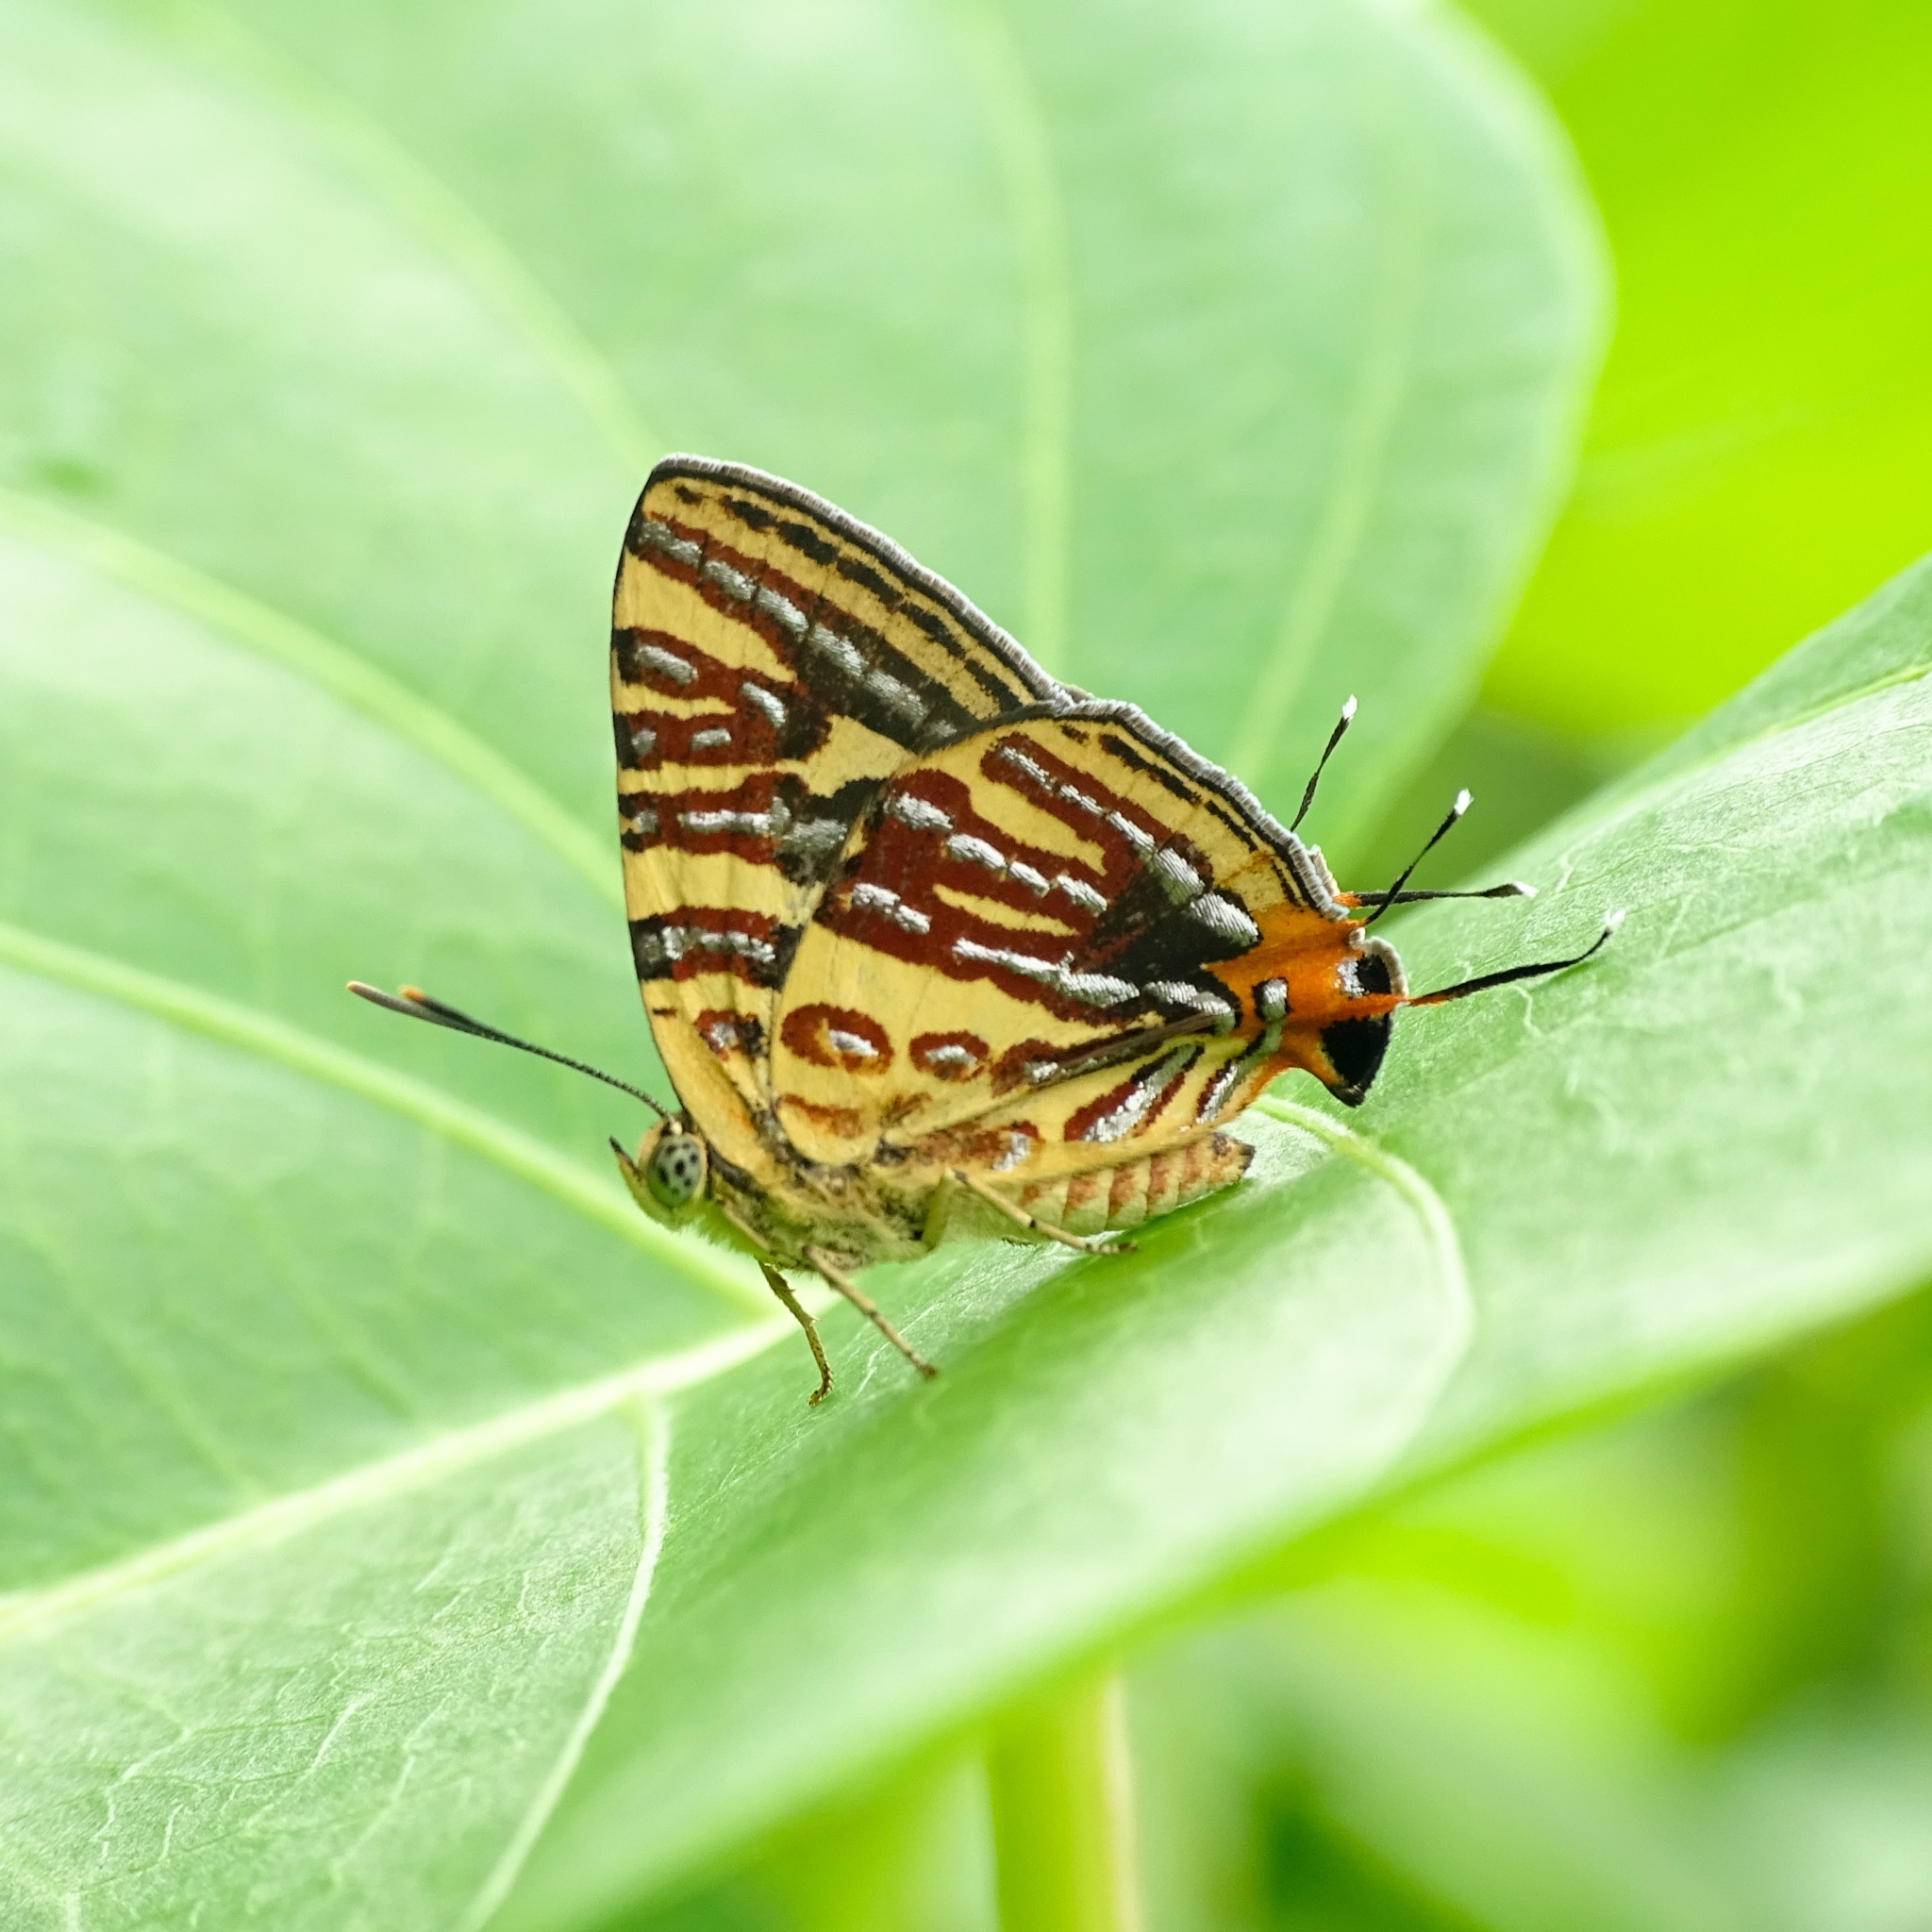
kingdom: Animalia
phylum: Arthropoda
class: Insecta
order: Lepidoptera
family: Lycaenidae
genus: Cigaritis
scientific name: Cigaritis lohita
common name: Long-banded silverline
